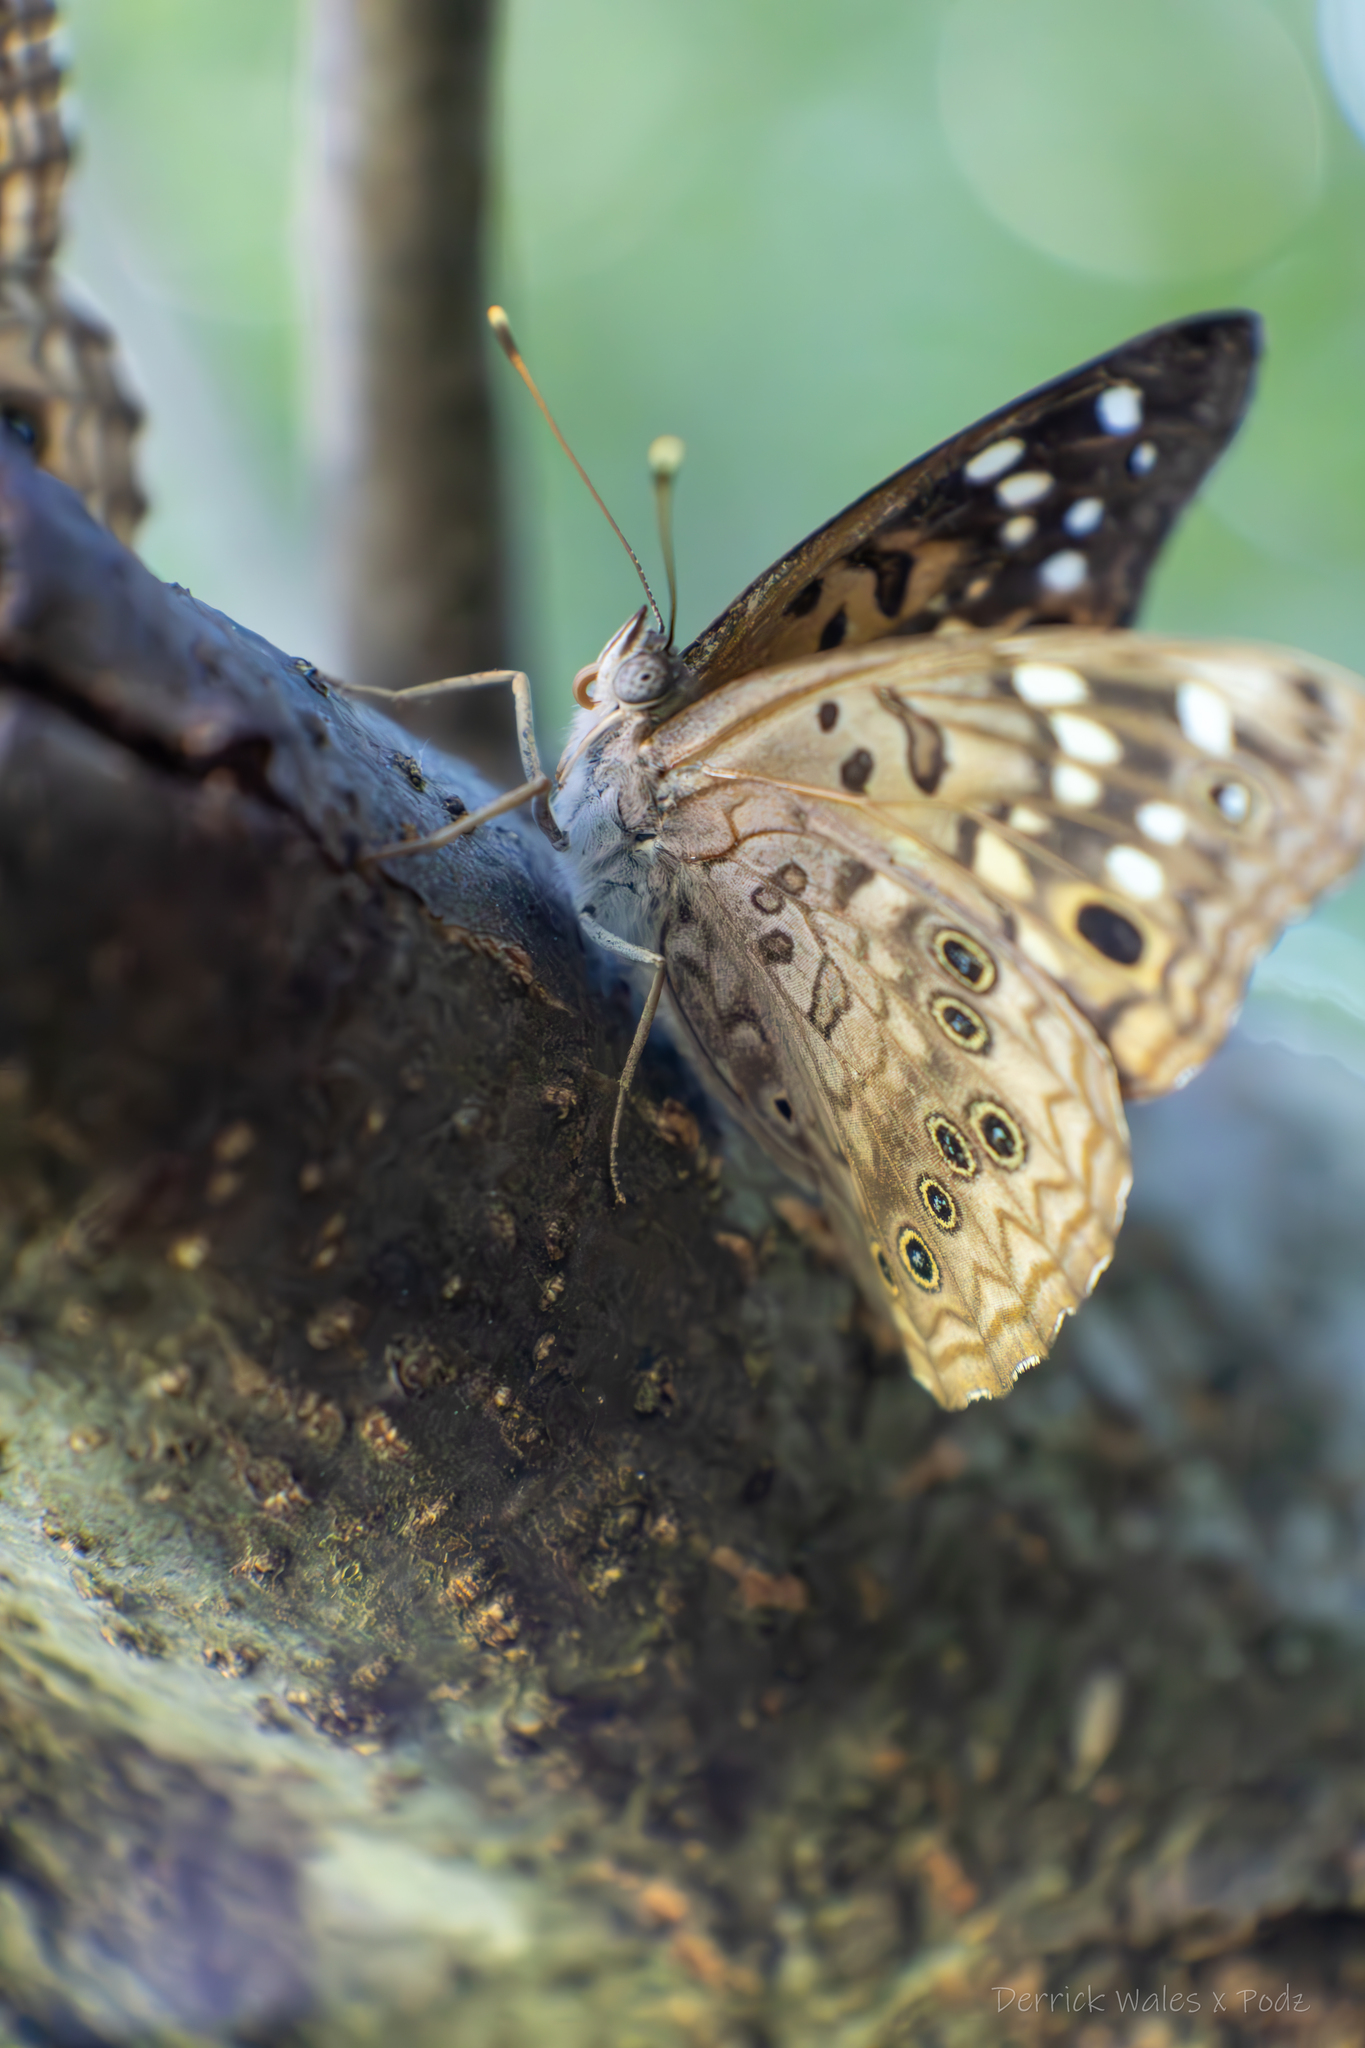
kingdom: Animalia
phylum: Arthropoda
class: Insecta
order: Lepidoptera
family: Nymphalidae
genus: Asterocampa
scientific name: Asterocampa celtis
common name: Hackberry emperor
